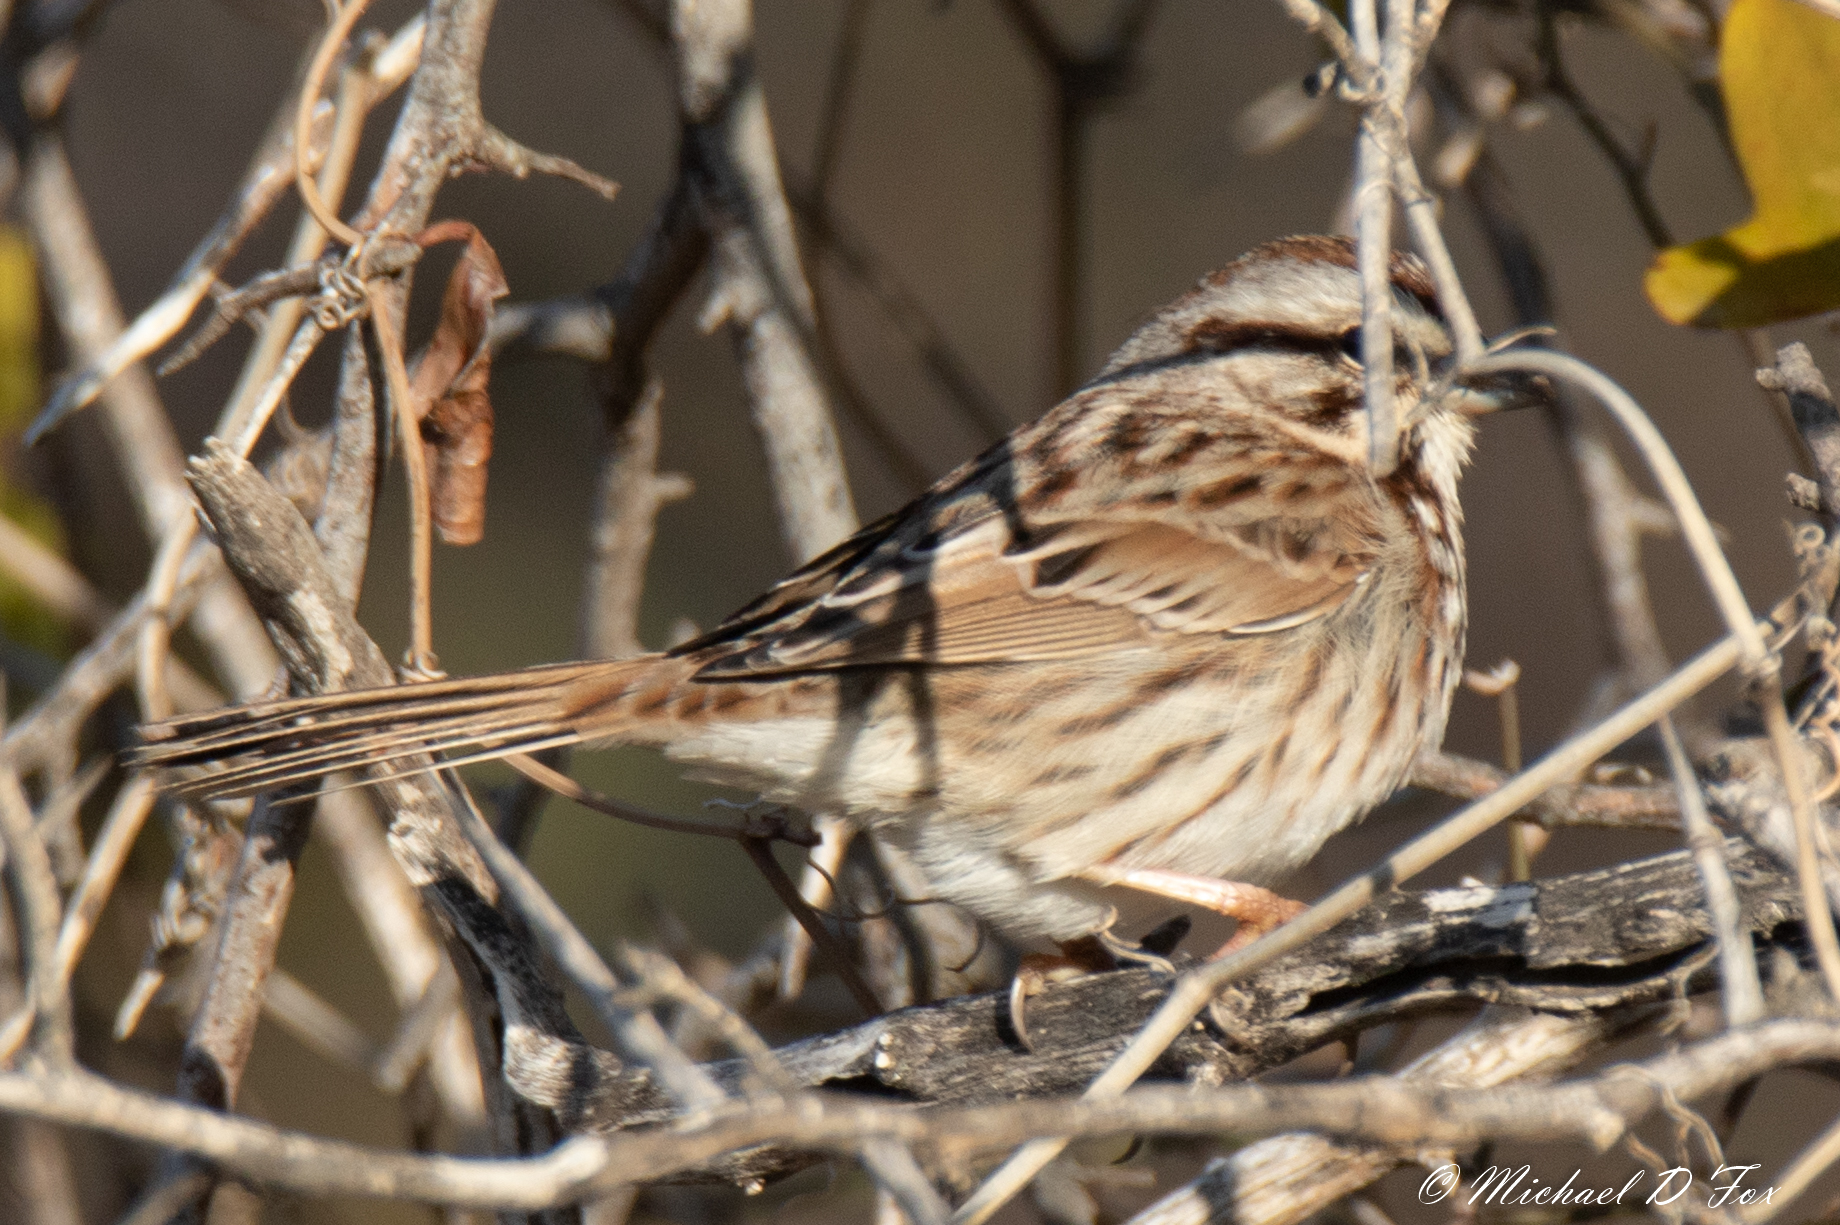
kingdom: Animalia
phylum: Chordata
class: Aves
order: Passeriformes
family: Passerellidae
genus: Melospiza
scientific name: Melospiza melodia
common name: Song sparrow
